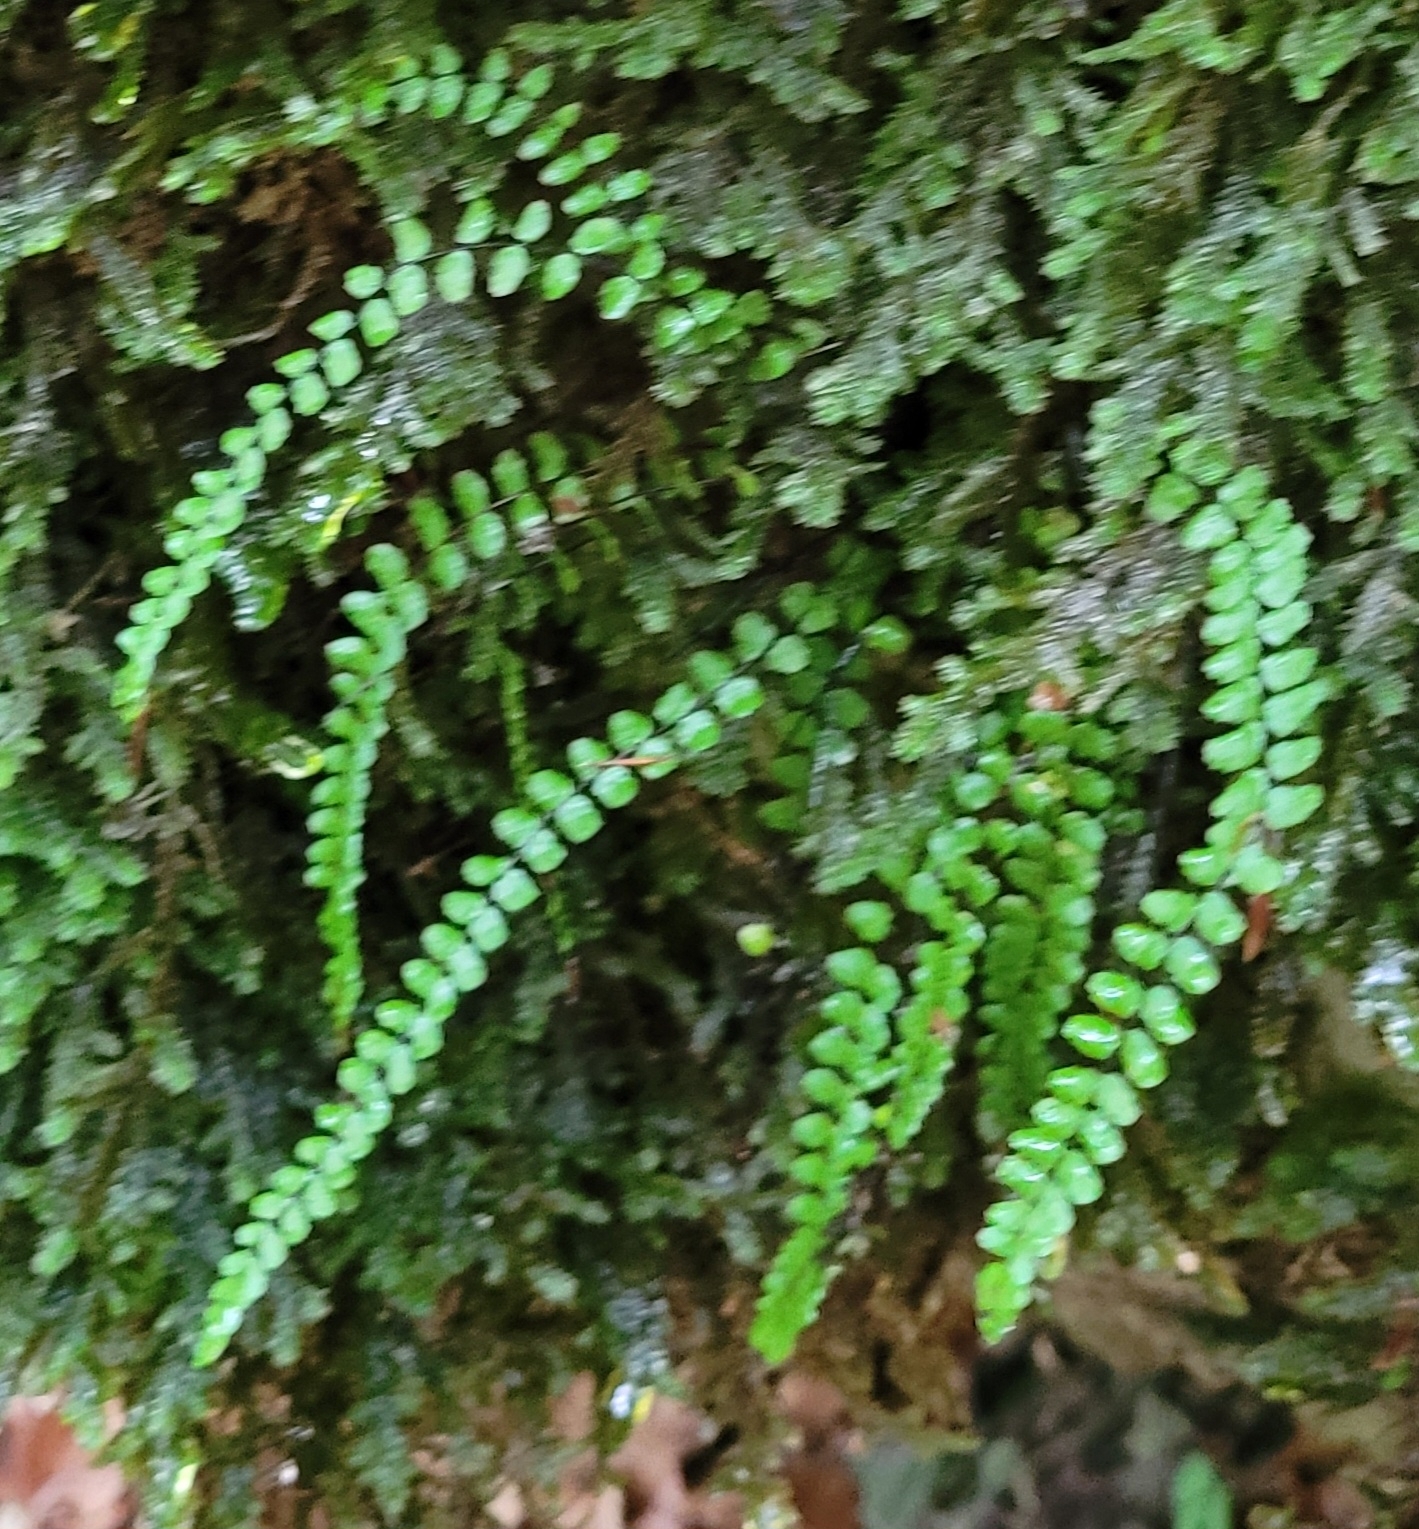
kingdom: Plantae
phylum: Tracheophyta
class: Polypodiopsida
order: Polypodiales
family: Aspleniaceae
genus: Asplenium
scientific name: Asplenium trichomanes
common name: Maidenhair spleenwort
